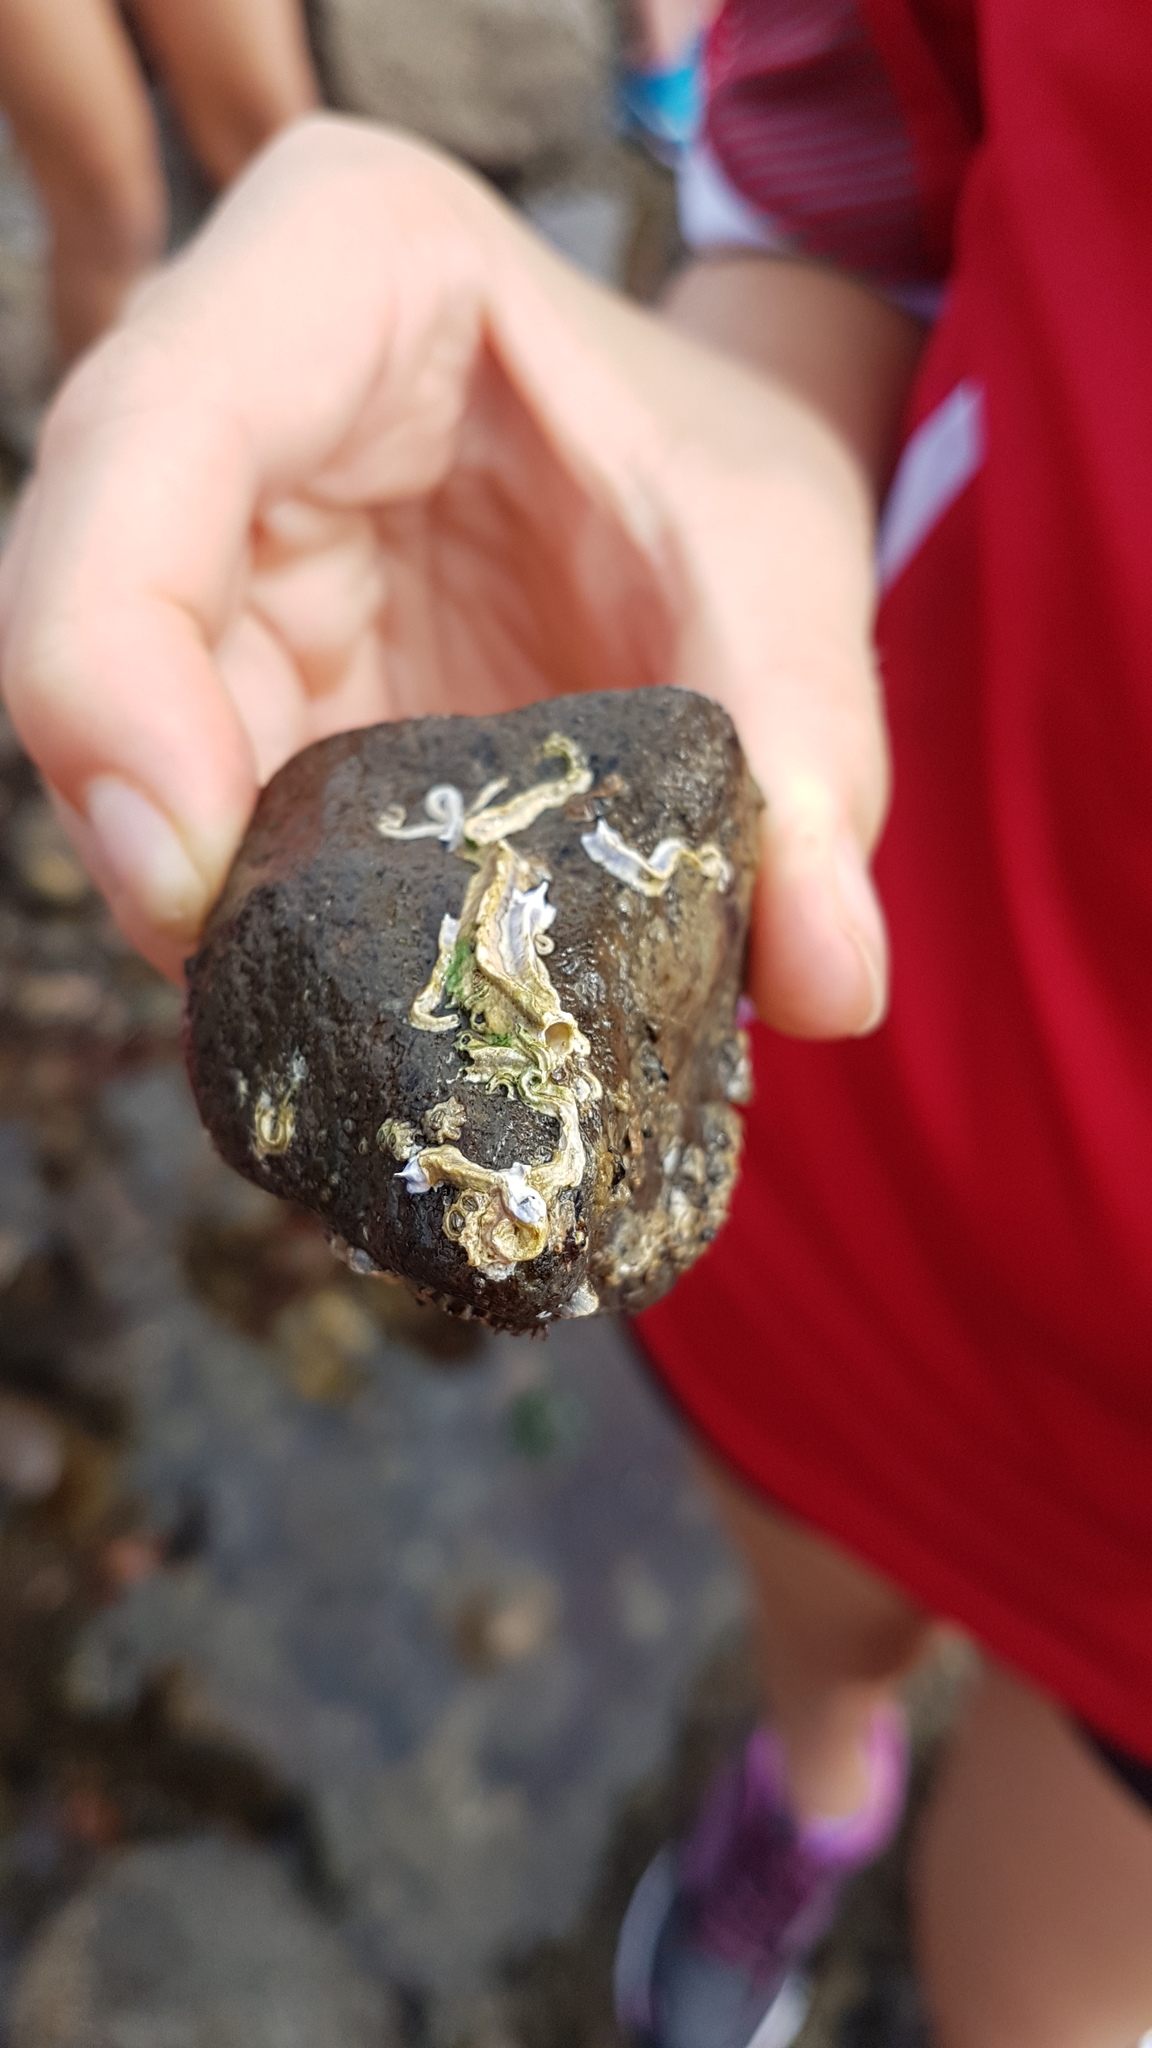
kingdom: Animalia
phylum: Annelida
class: Polychaeta
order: Sabellida
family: Serpulidae
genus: Spirobranchus
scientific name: Spirobranchus cariniferus
